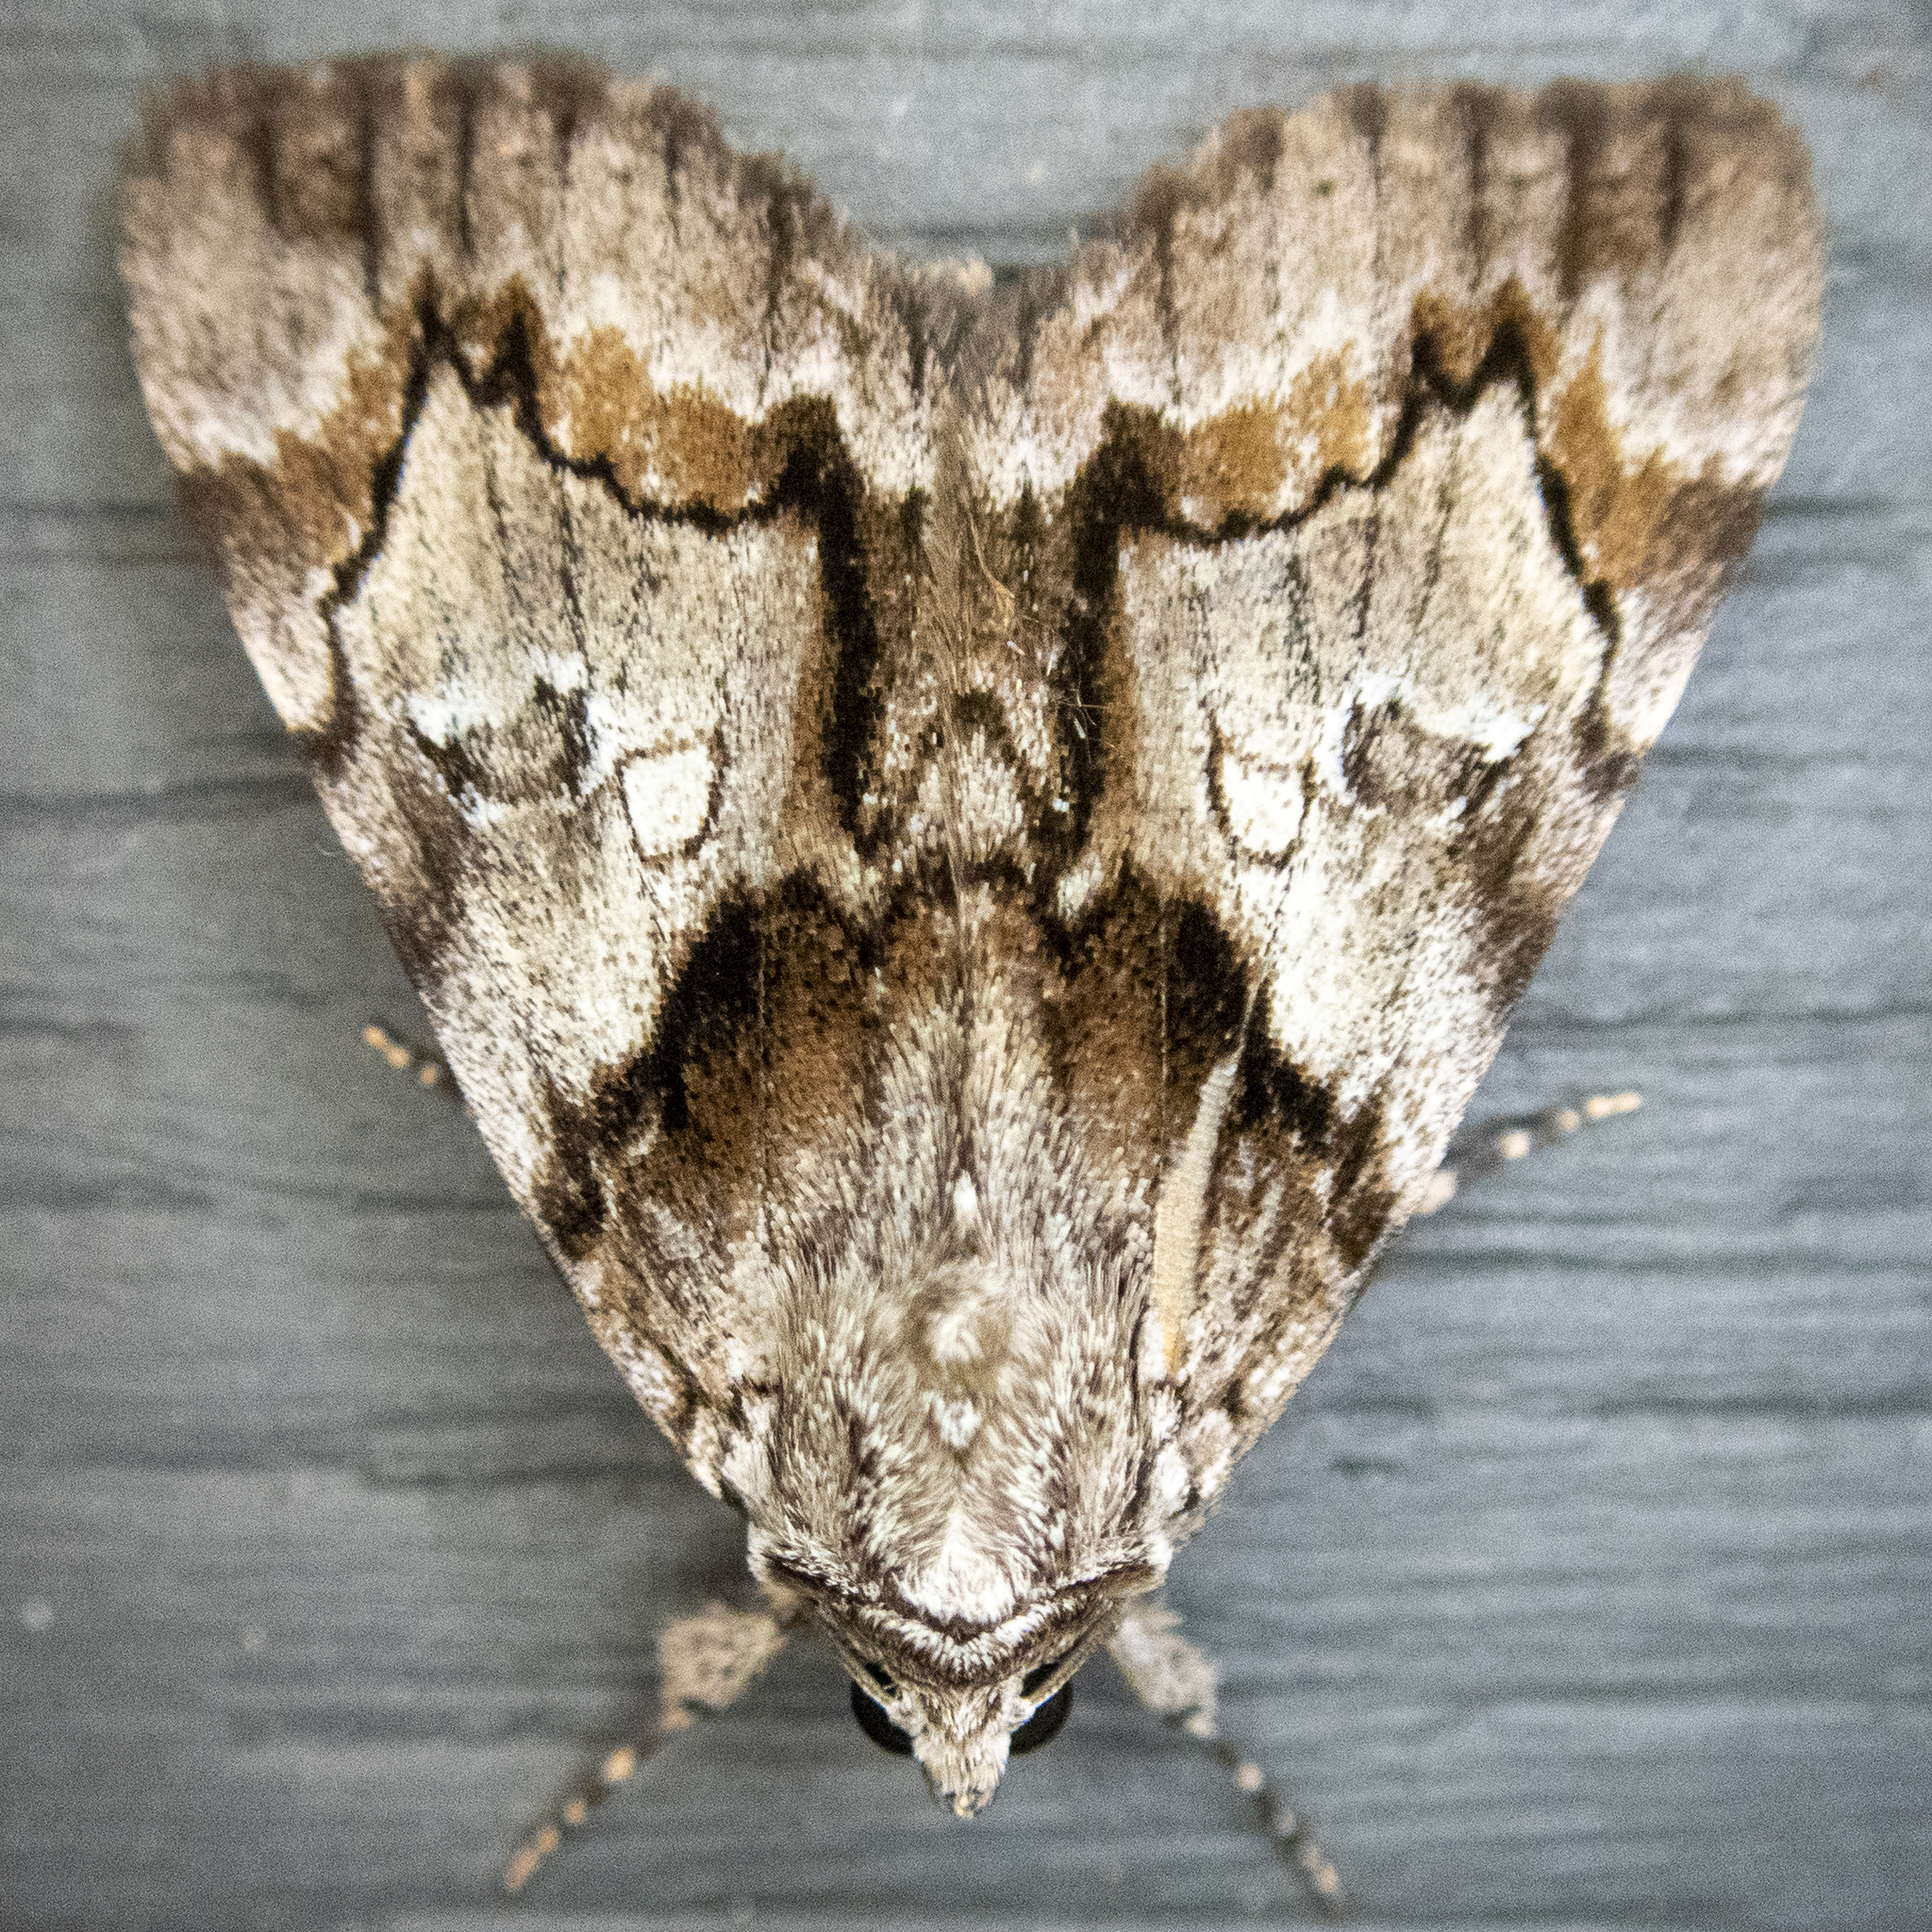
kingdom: Animalia
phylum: Arthropoda
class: Insecta
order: Lepidoptera
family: Erebidae
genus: Catocala
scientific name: Catocala blandula
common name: Charming underwing
